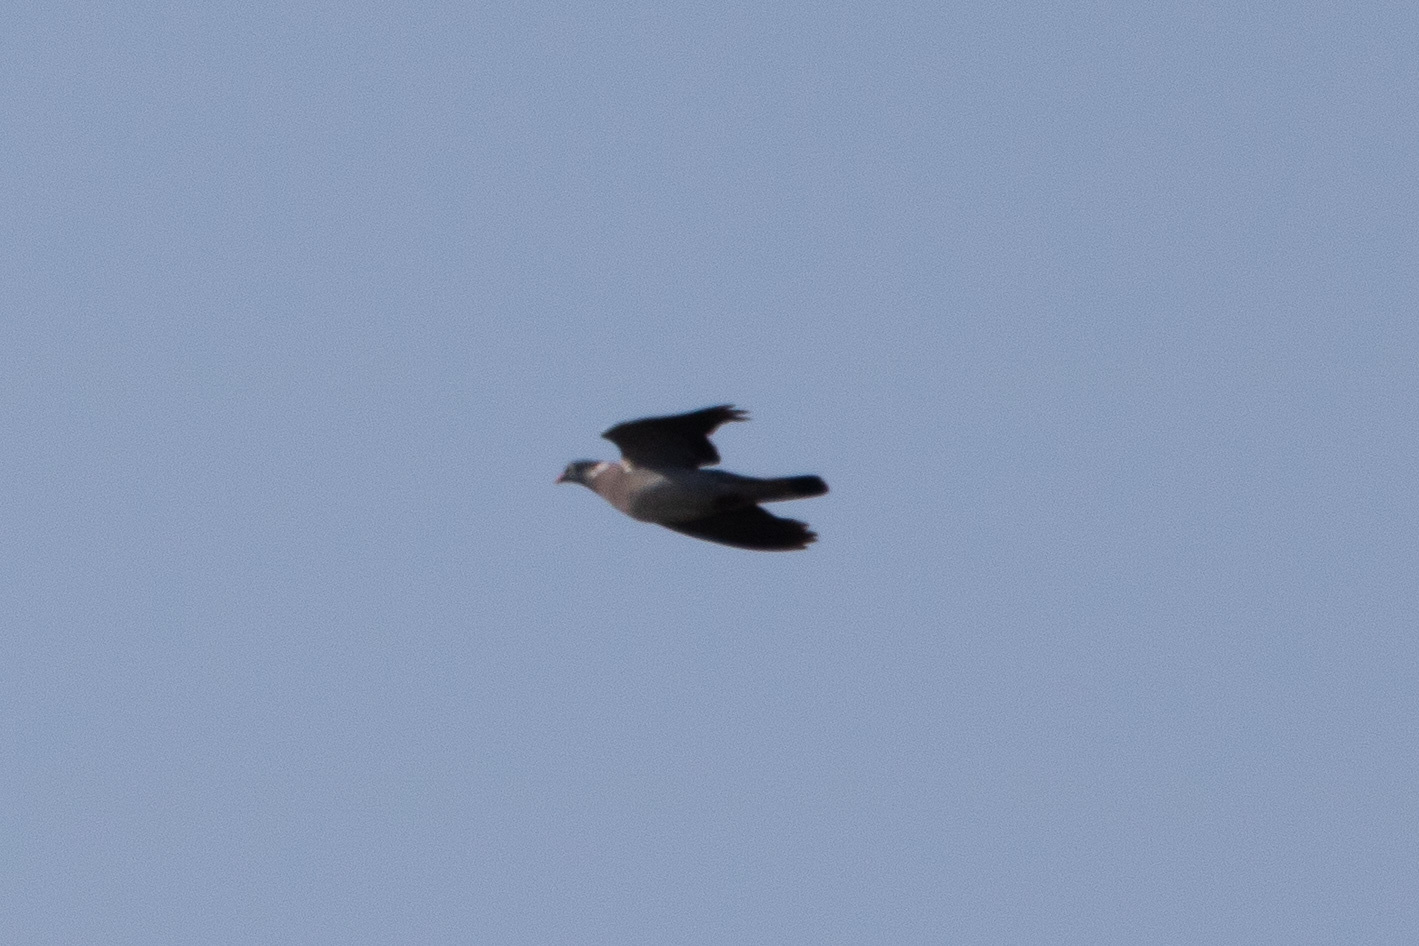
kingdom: Animalia
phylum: Chordata
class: Aves
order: Columbiformes
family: Columbidae
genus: Columba
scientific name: Columba palumbus
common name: Common wood pigeon
